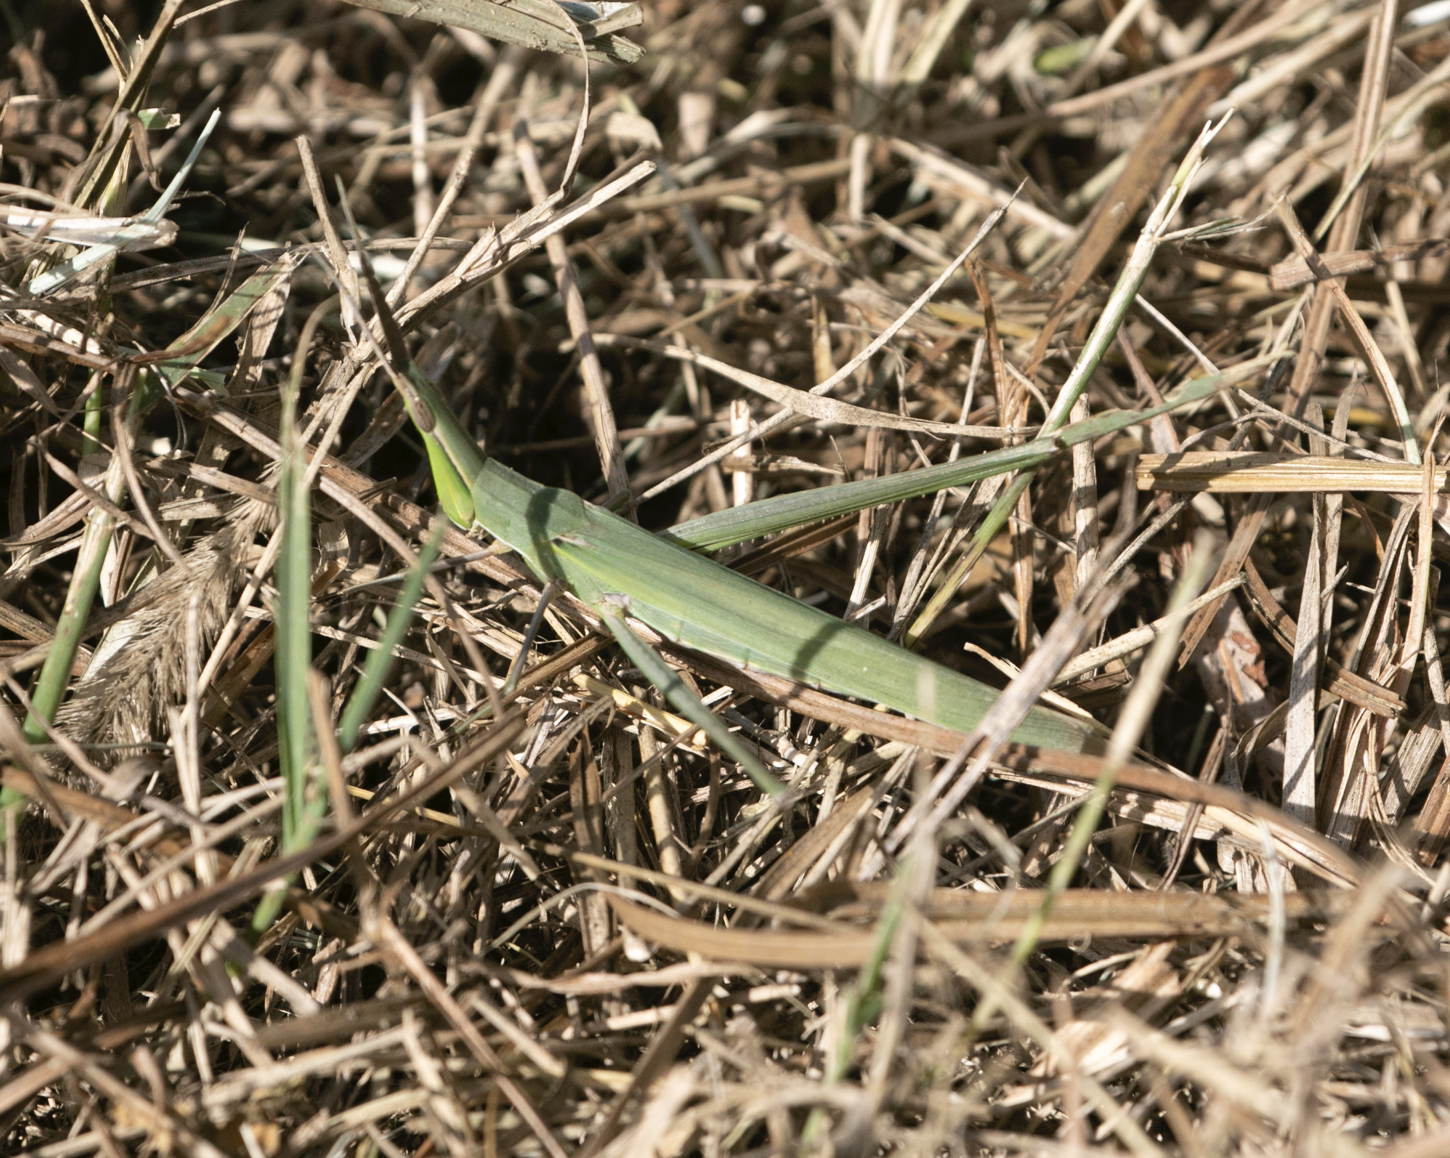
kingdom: Animalia
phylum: Arthropoda
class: Insecta
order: Orthoptera
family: Acrididae
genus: Acrida
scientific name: Acrida ungarica
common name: Common cone-headed grasshopper
